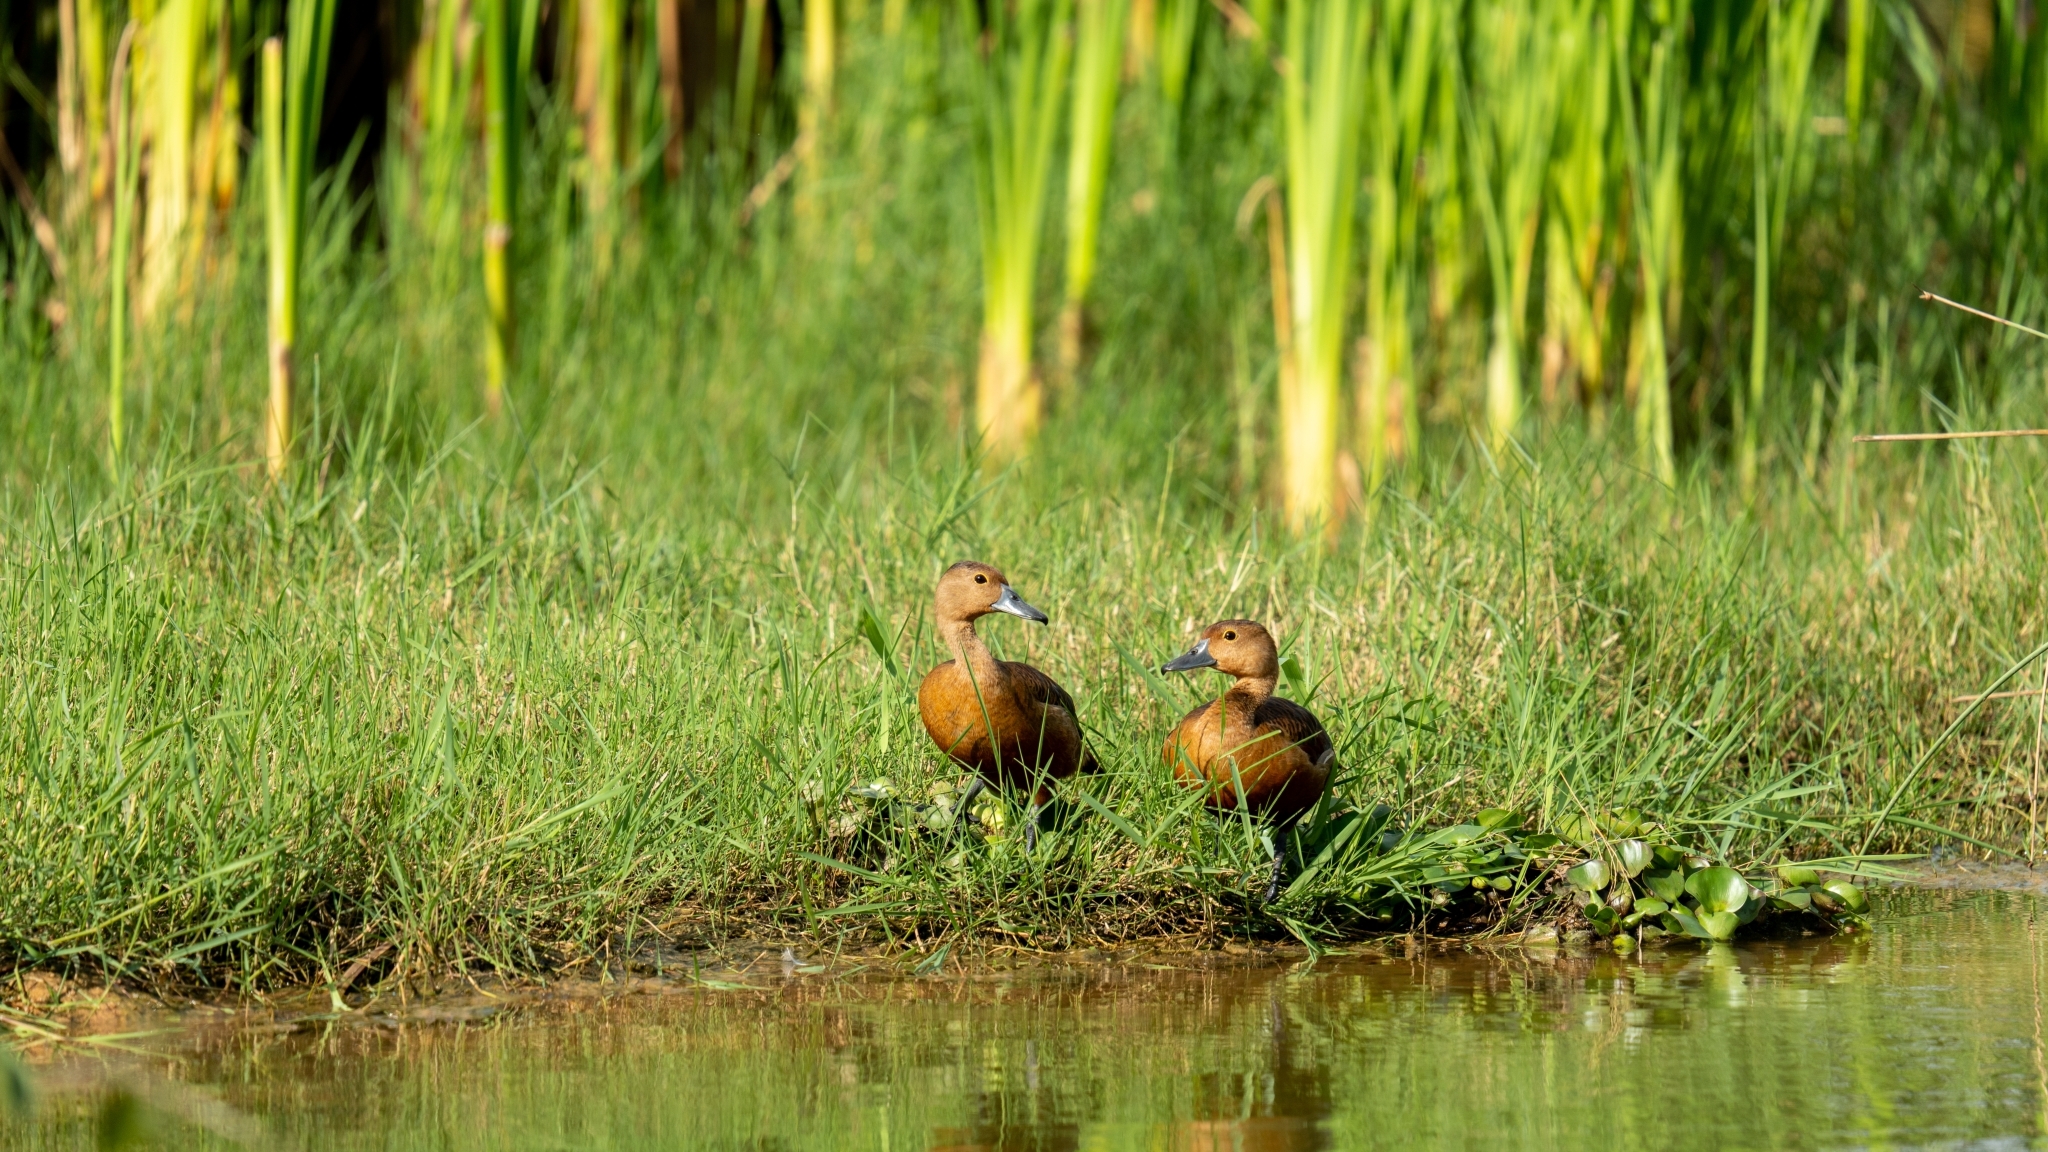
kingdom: Animalia
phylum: Chordata
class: Aves
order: Anseriformes
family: Anatidae
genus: Dendrocygna
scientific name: Dendrocygna javanica
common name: Lesser whistling-duck
